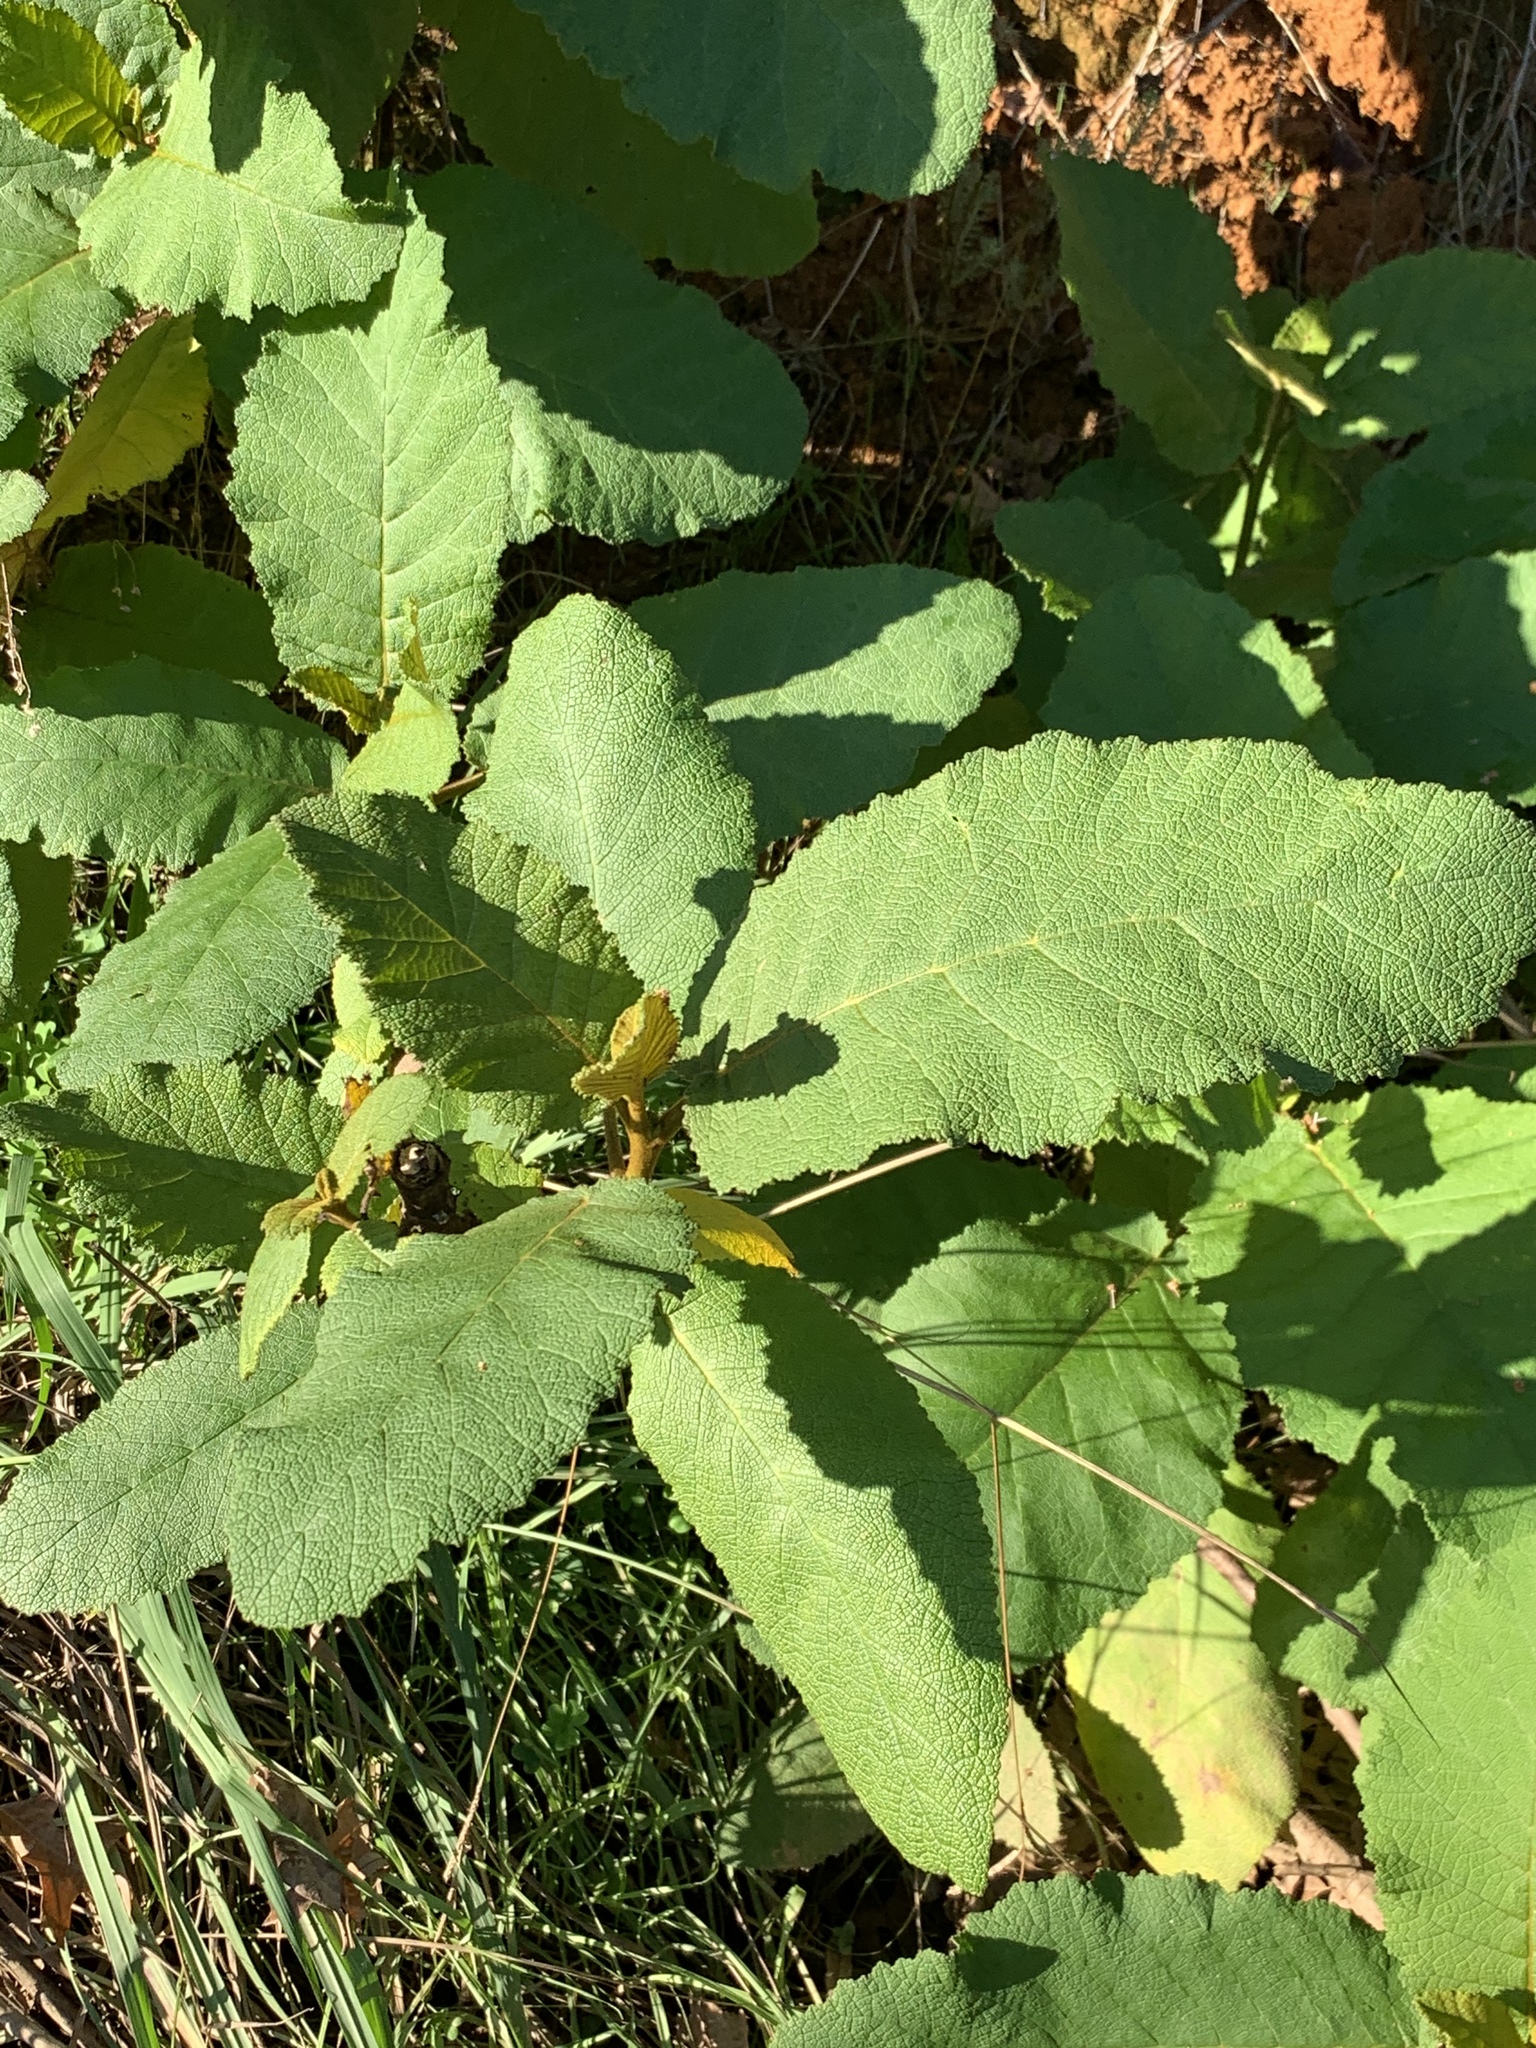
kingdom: Plantae
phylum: Tracheophyta
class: Magnoliopsida
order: Boraginales
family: Namaceae
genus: Wigandia
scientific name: Wigandia urens
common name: Caracus wigandia
